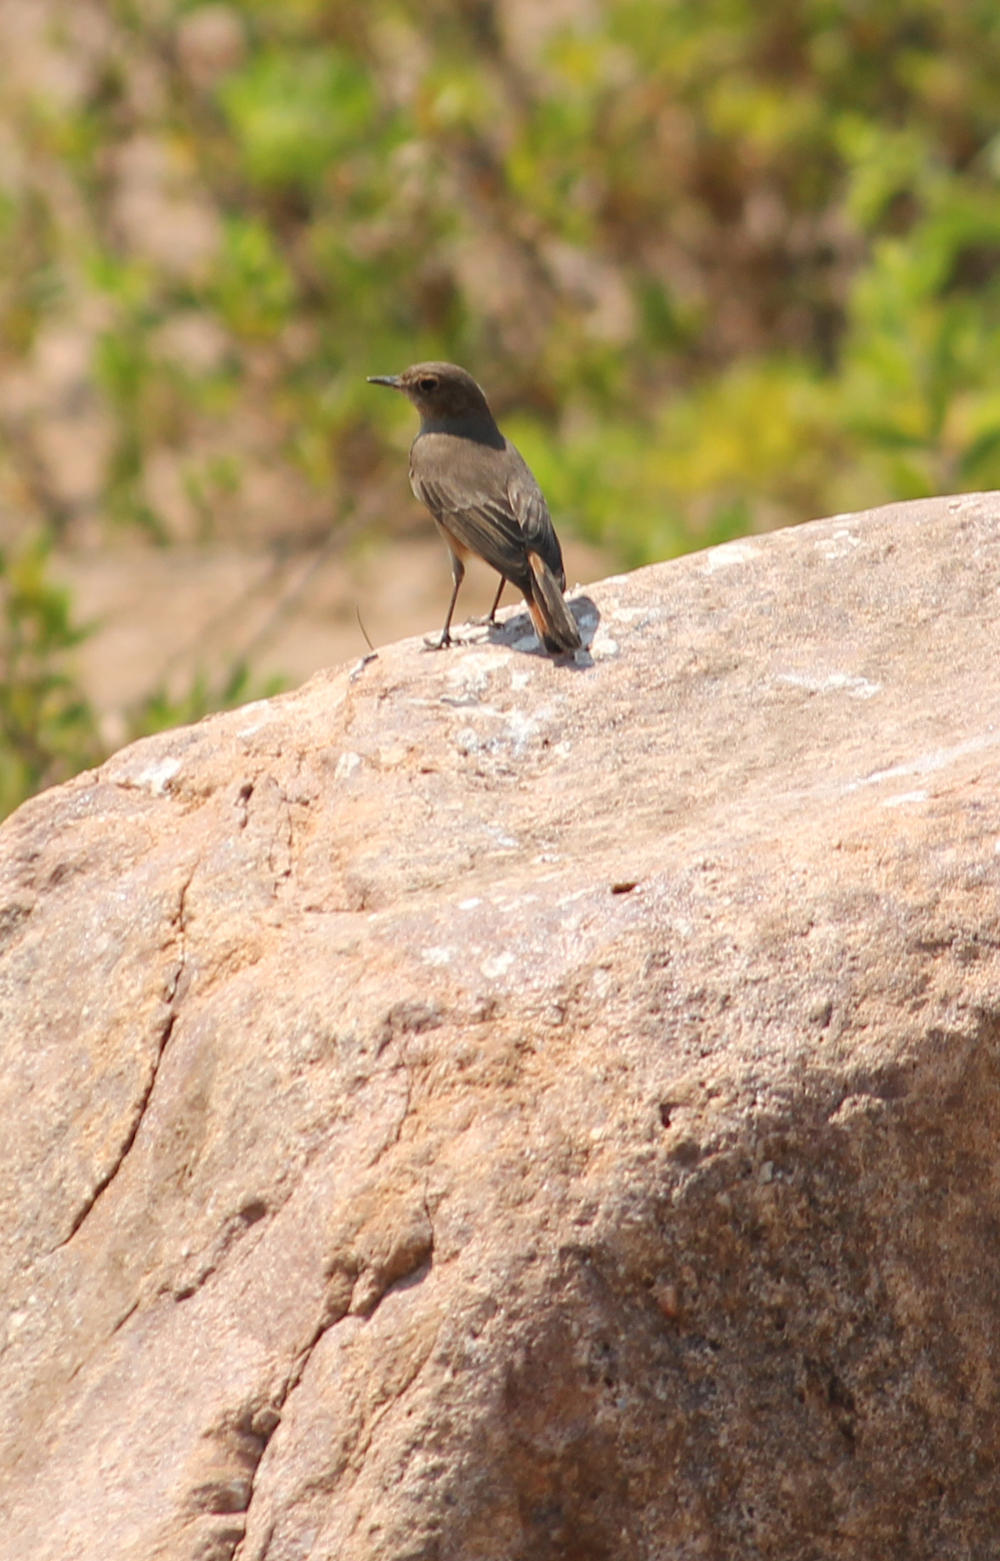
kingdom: Animalia
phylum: Chordata
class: Aves
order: Passeriformes
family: Muscicapidae
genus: Oenanthe
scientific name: Oenanthe familiaris
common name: Familiar chat
